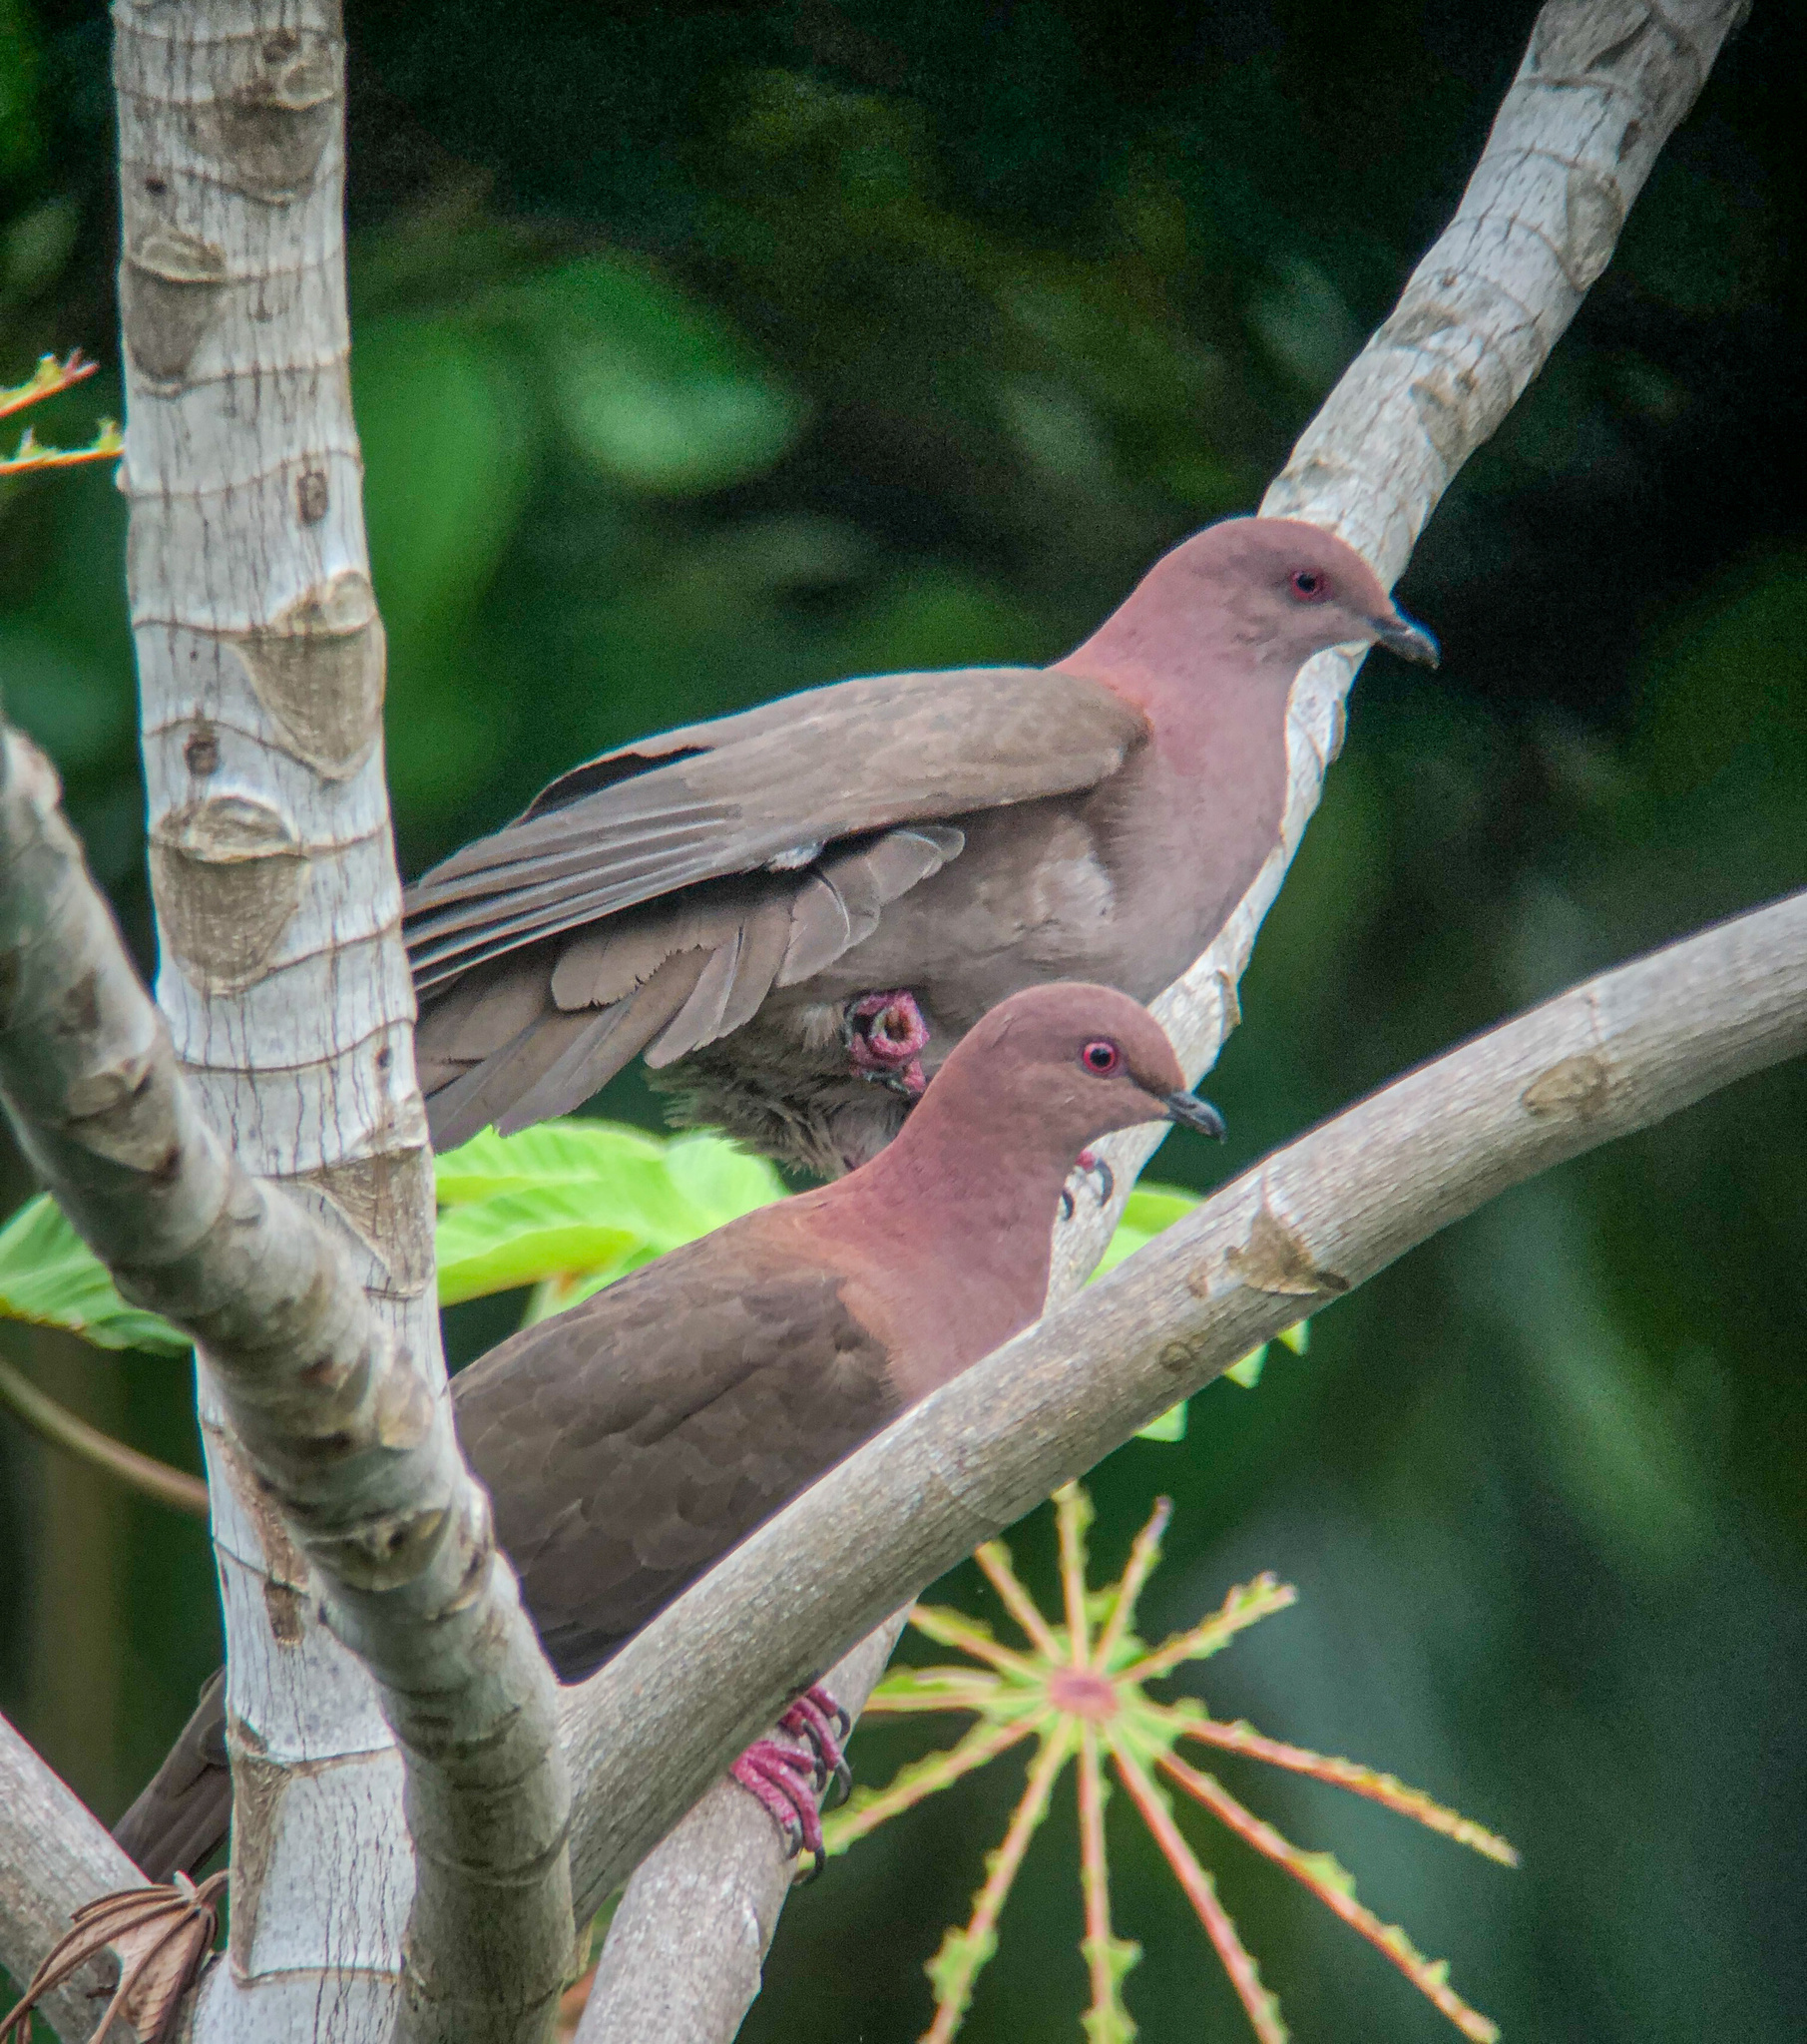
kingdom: Animalia
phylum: Chordata
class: Aves
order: Columbiformes
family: Columbidae
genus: Patagioenas
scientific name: Patagioenas nigrirostris
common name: Short-billed pigeon
